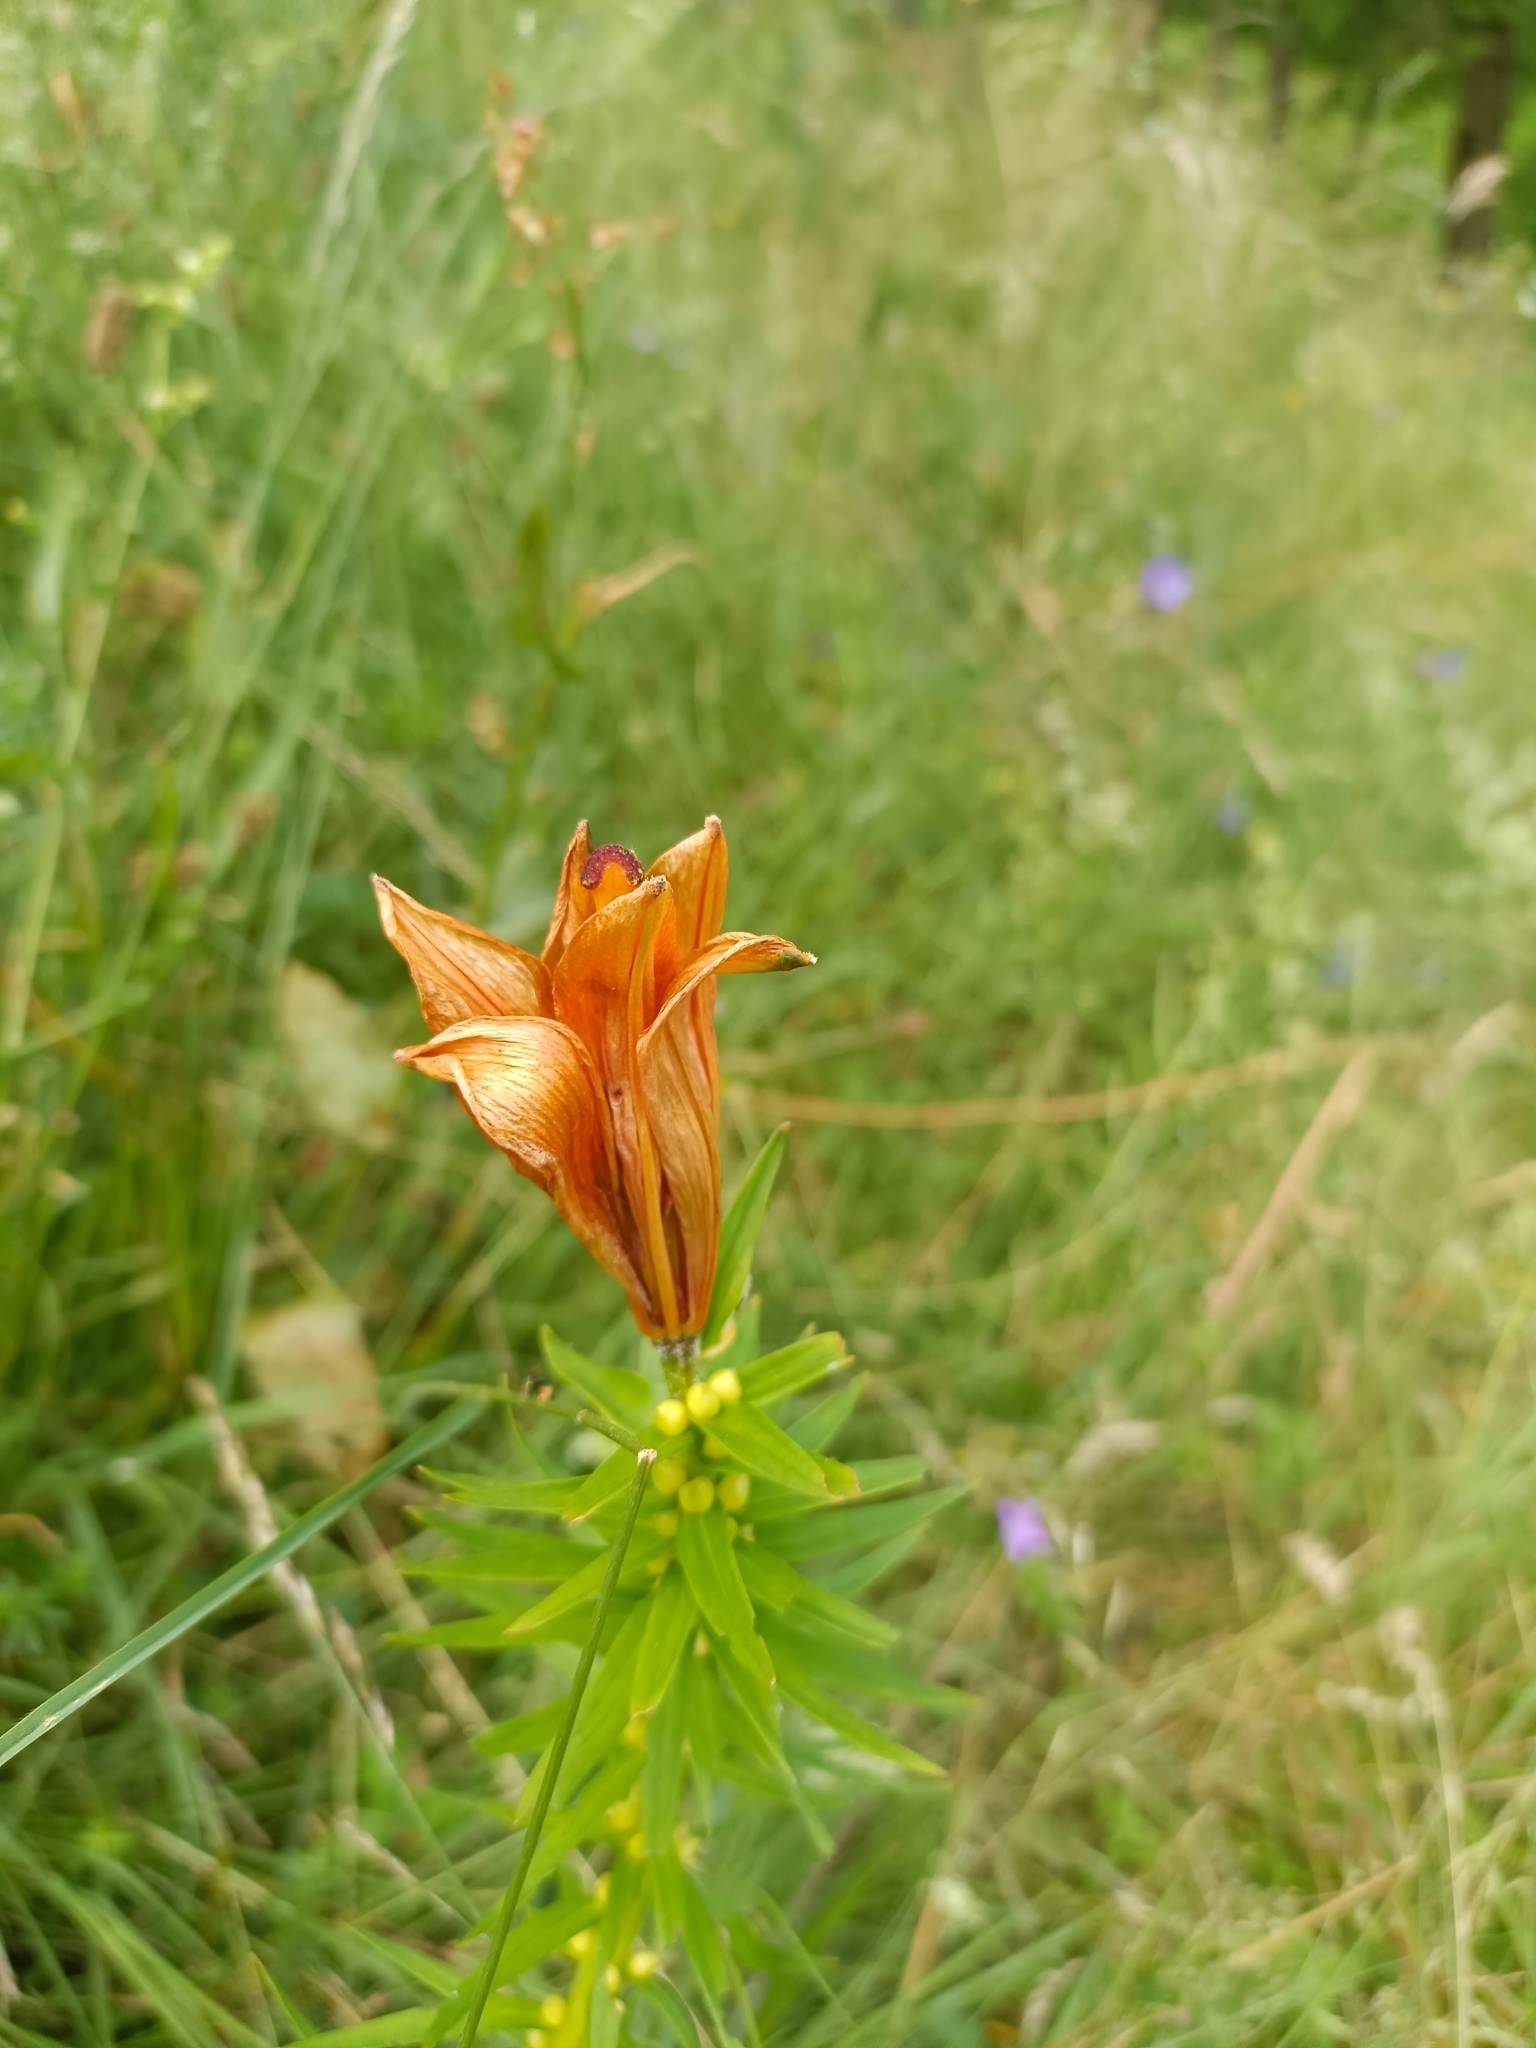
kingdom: Plantae
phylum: Tracheophyta
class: Liliopsida
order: Liliales
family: Liliaceae
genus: Lilium
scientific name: Lilium bulbiferum
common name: Orange lily
